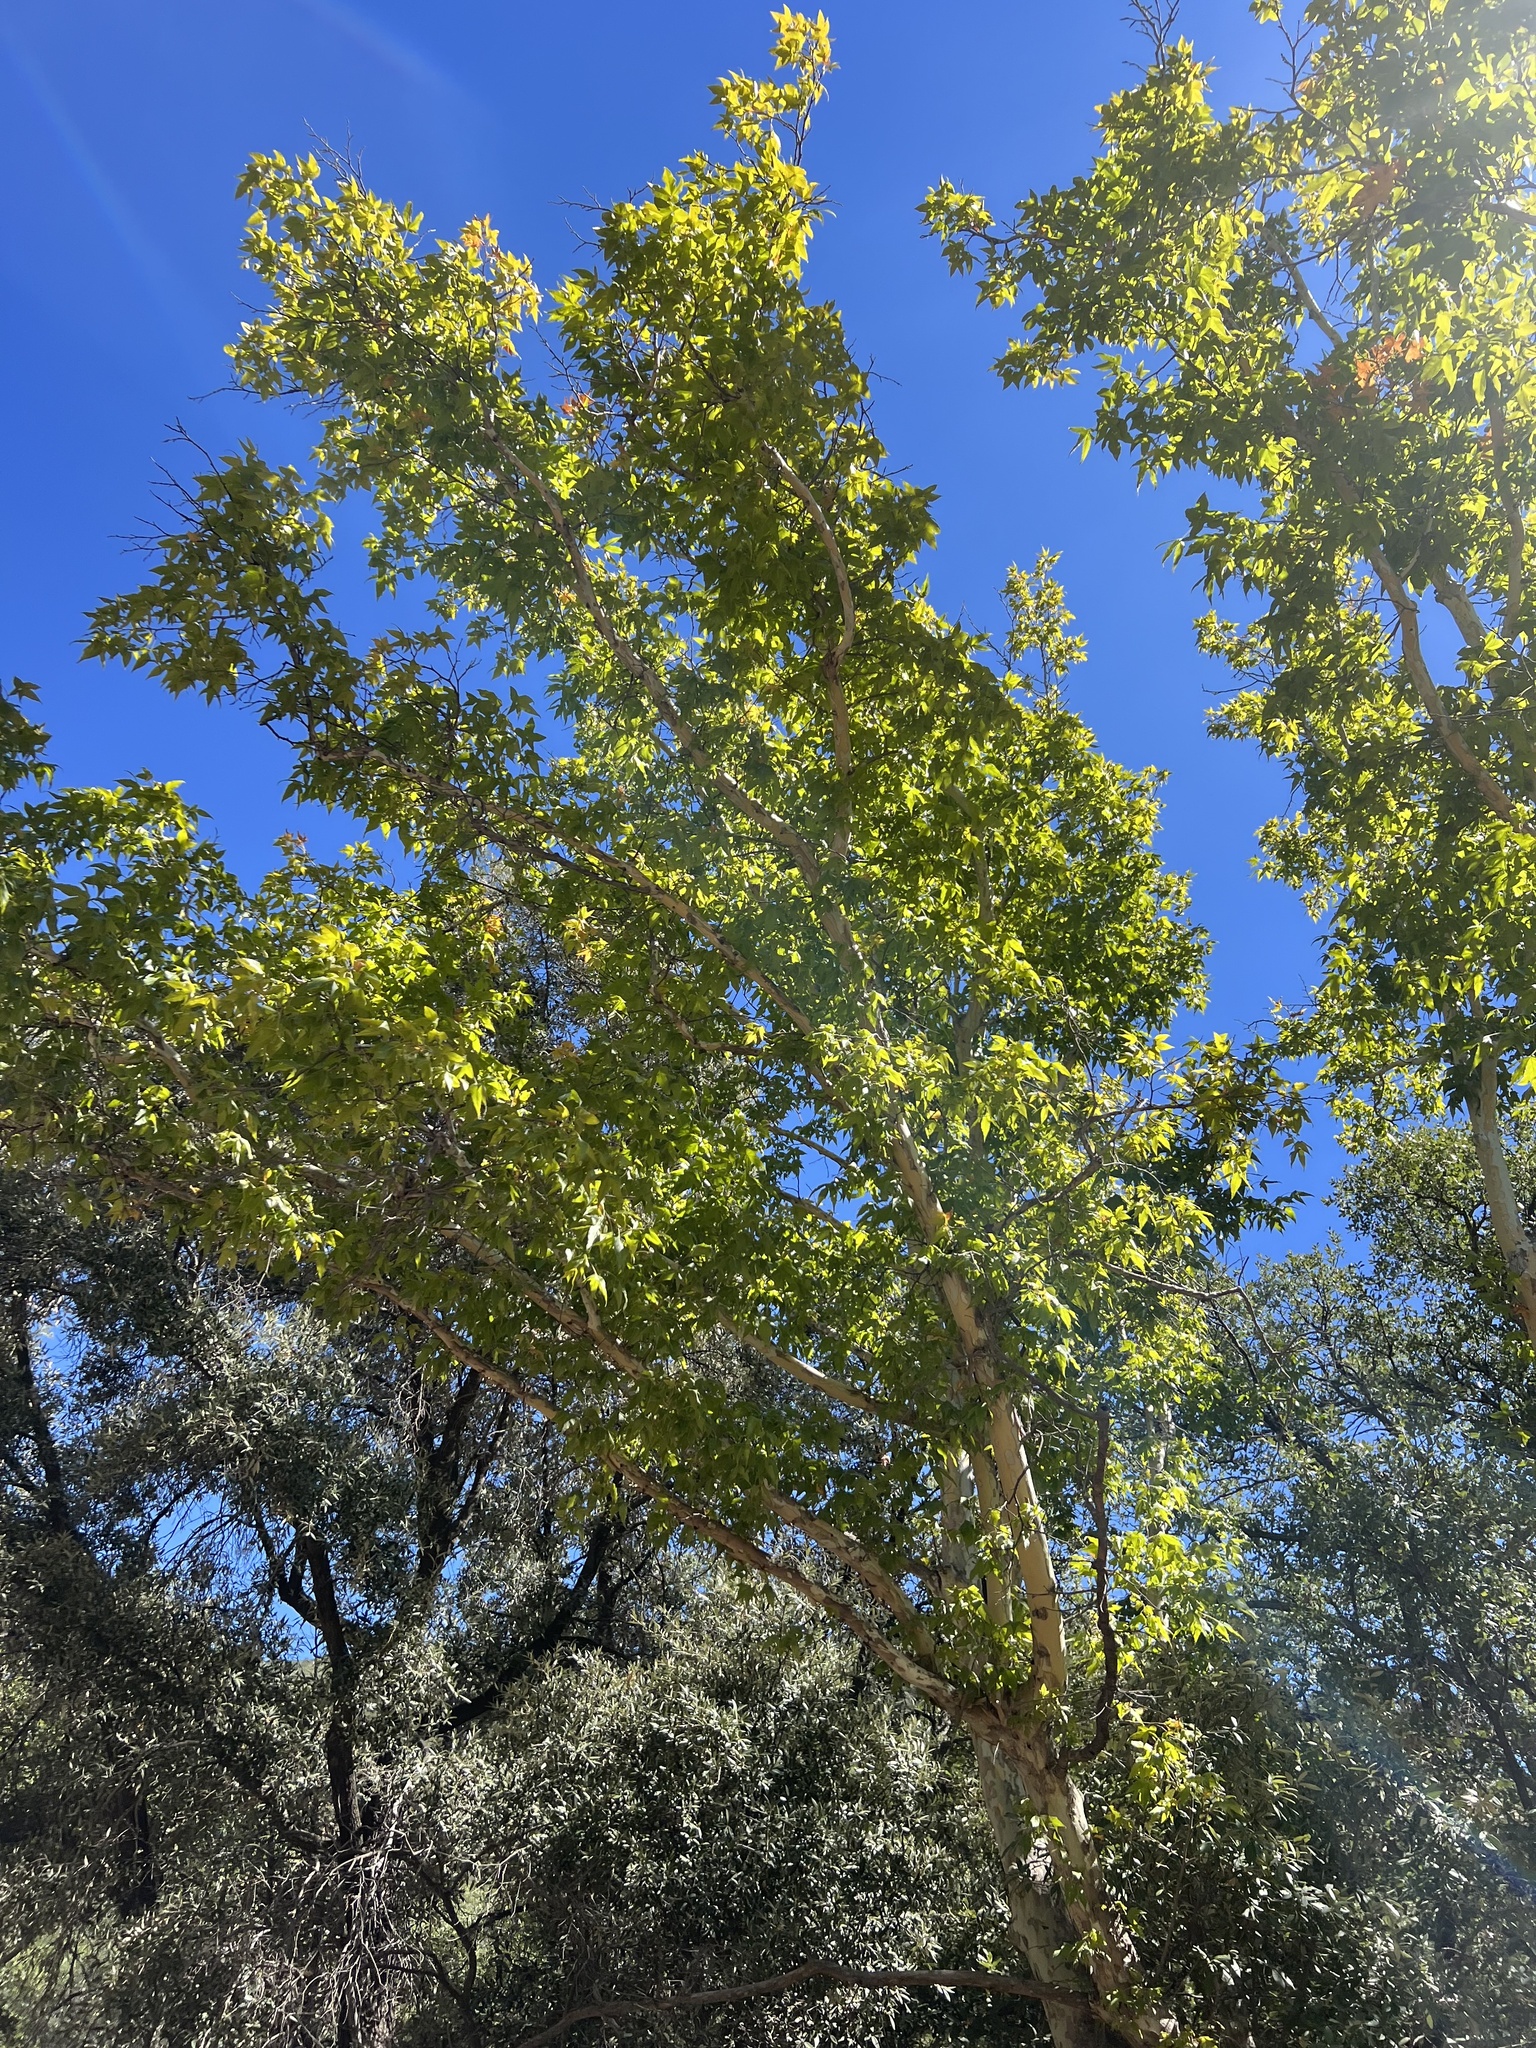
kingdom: Plantae
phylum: Tracheophyta
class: Magnoliopsida
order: Proteales
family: Platanaceae
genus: Platanus
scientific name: Platanus wrightii
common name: Arizona sycamore
